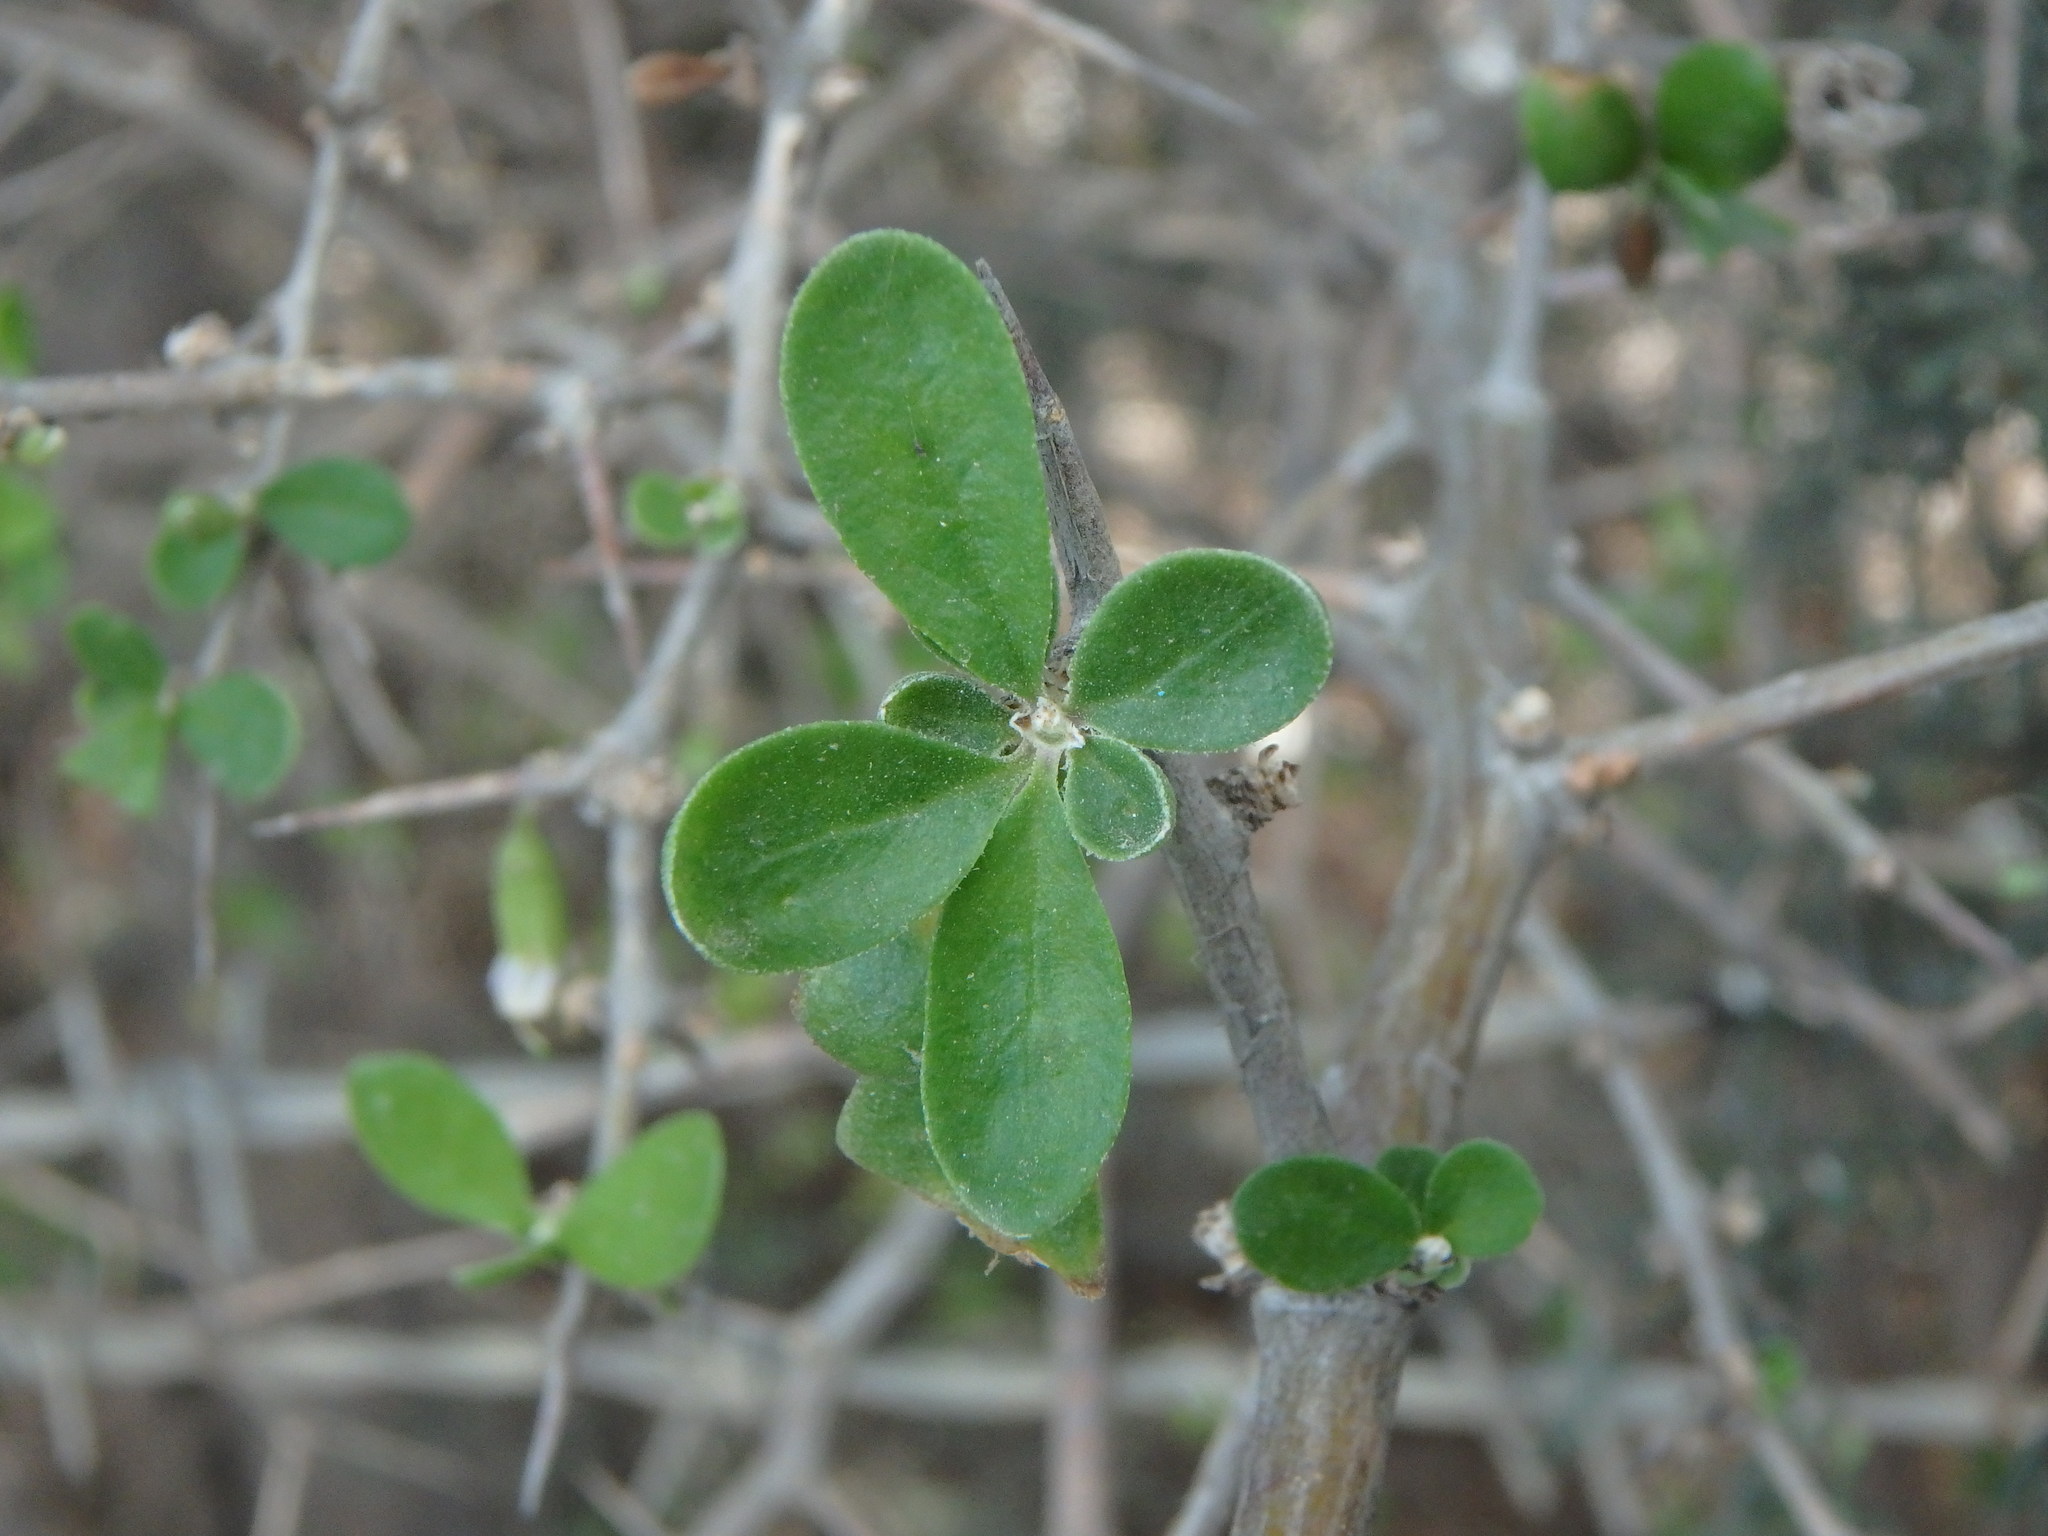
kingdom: Plantae
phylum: Tracheophyta
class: Magnoliopsida
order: Solanales
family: Solanaceae
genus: Lycium
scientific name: Lycium ferocissimum
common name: African boxthorn
